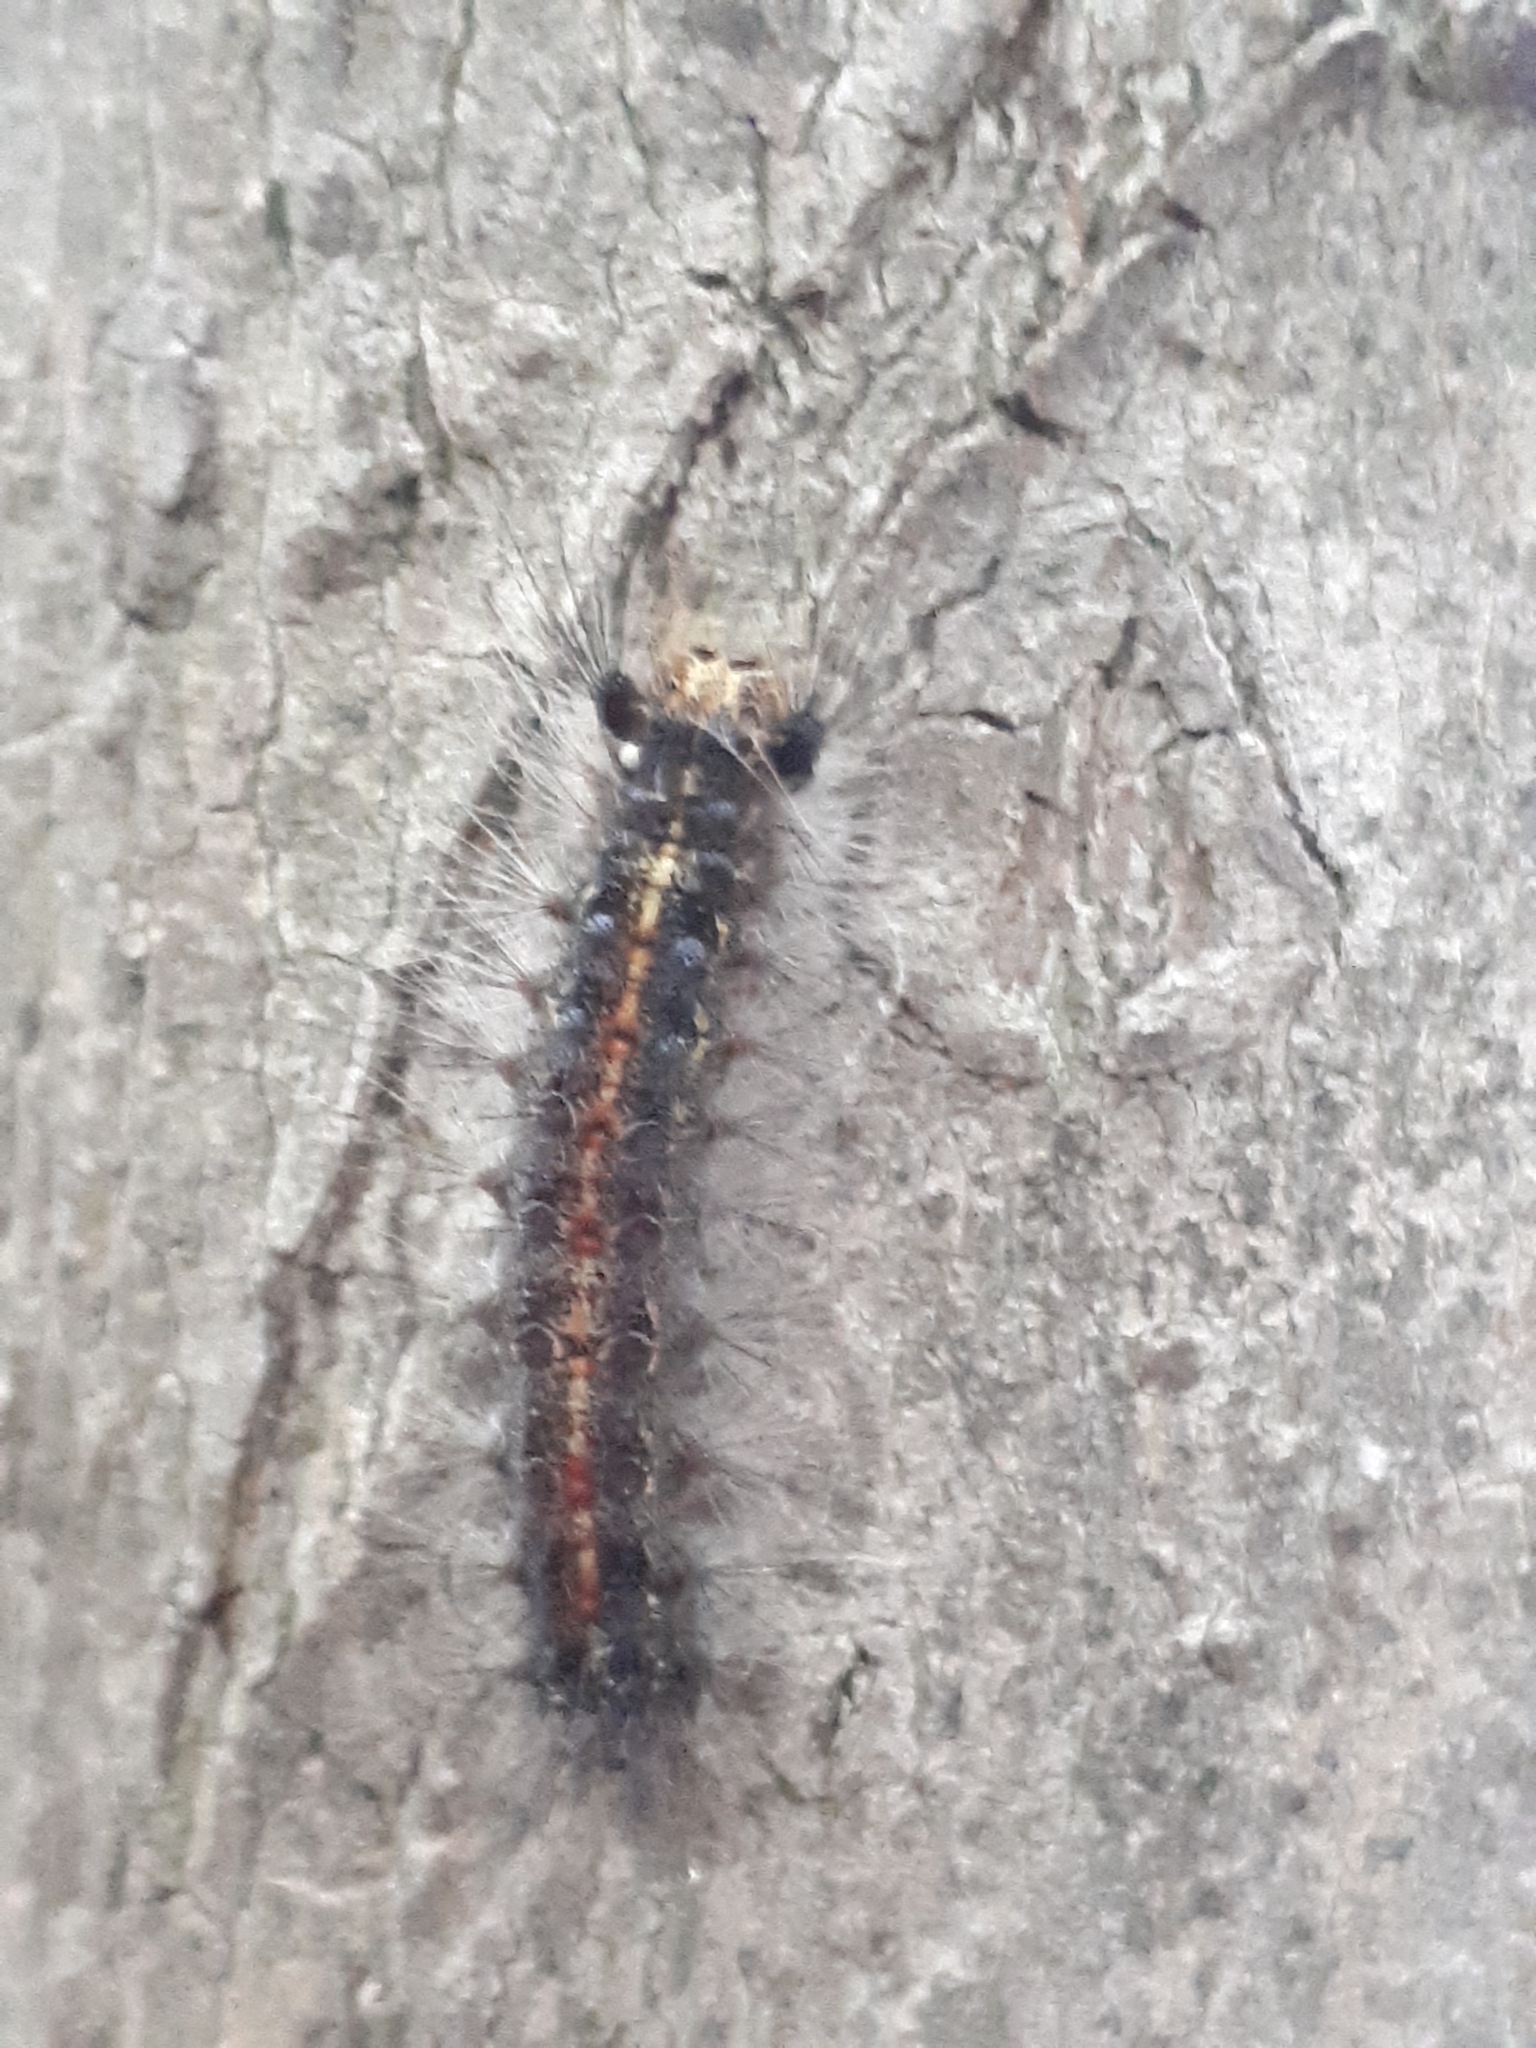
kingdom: Animalia
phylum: Arthropoda
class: Insecta
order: Lepidoptera
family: Erebidae
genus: Lymantria
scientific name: Lymantria dispar
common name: Gypsy moth
